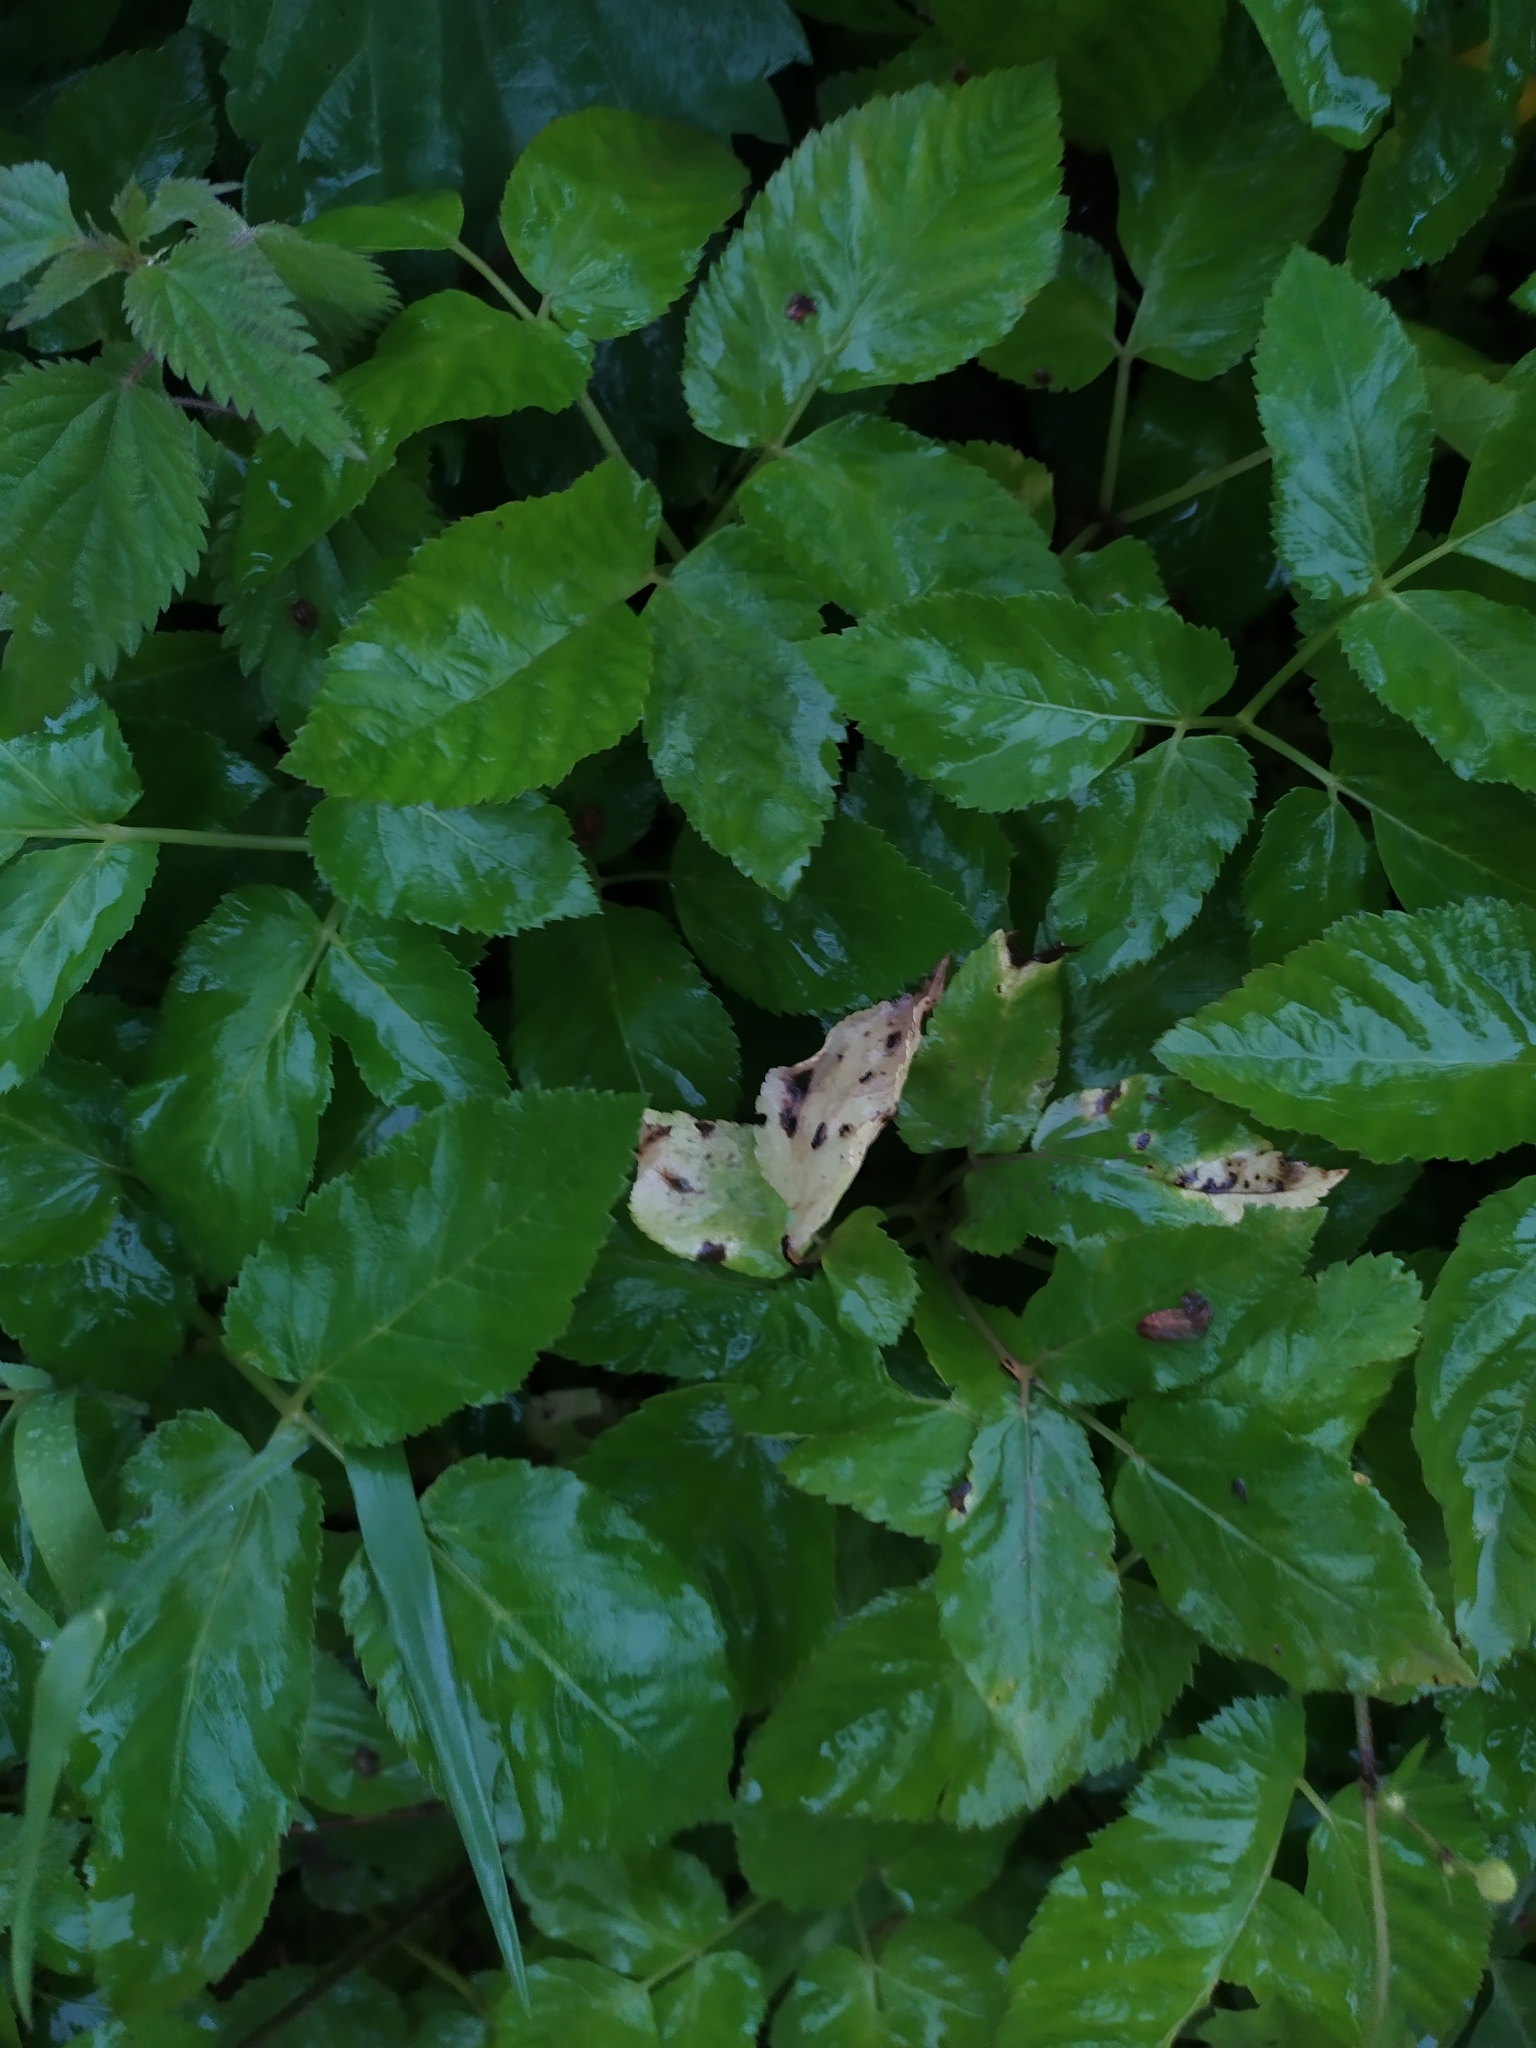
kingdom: Plantae
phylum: Tracheophyta
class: Magnoliopsida
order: Apiales
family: Apiaceae
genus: Aegopodium
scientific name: Aegopodium podagraria
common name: Ground-elder
